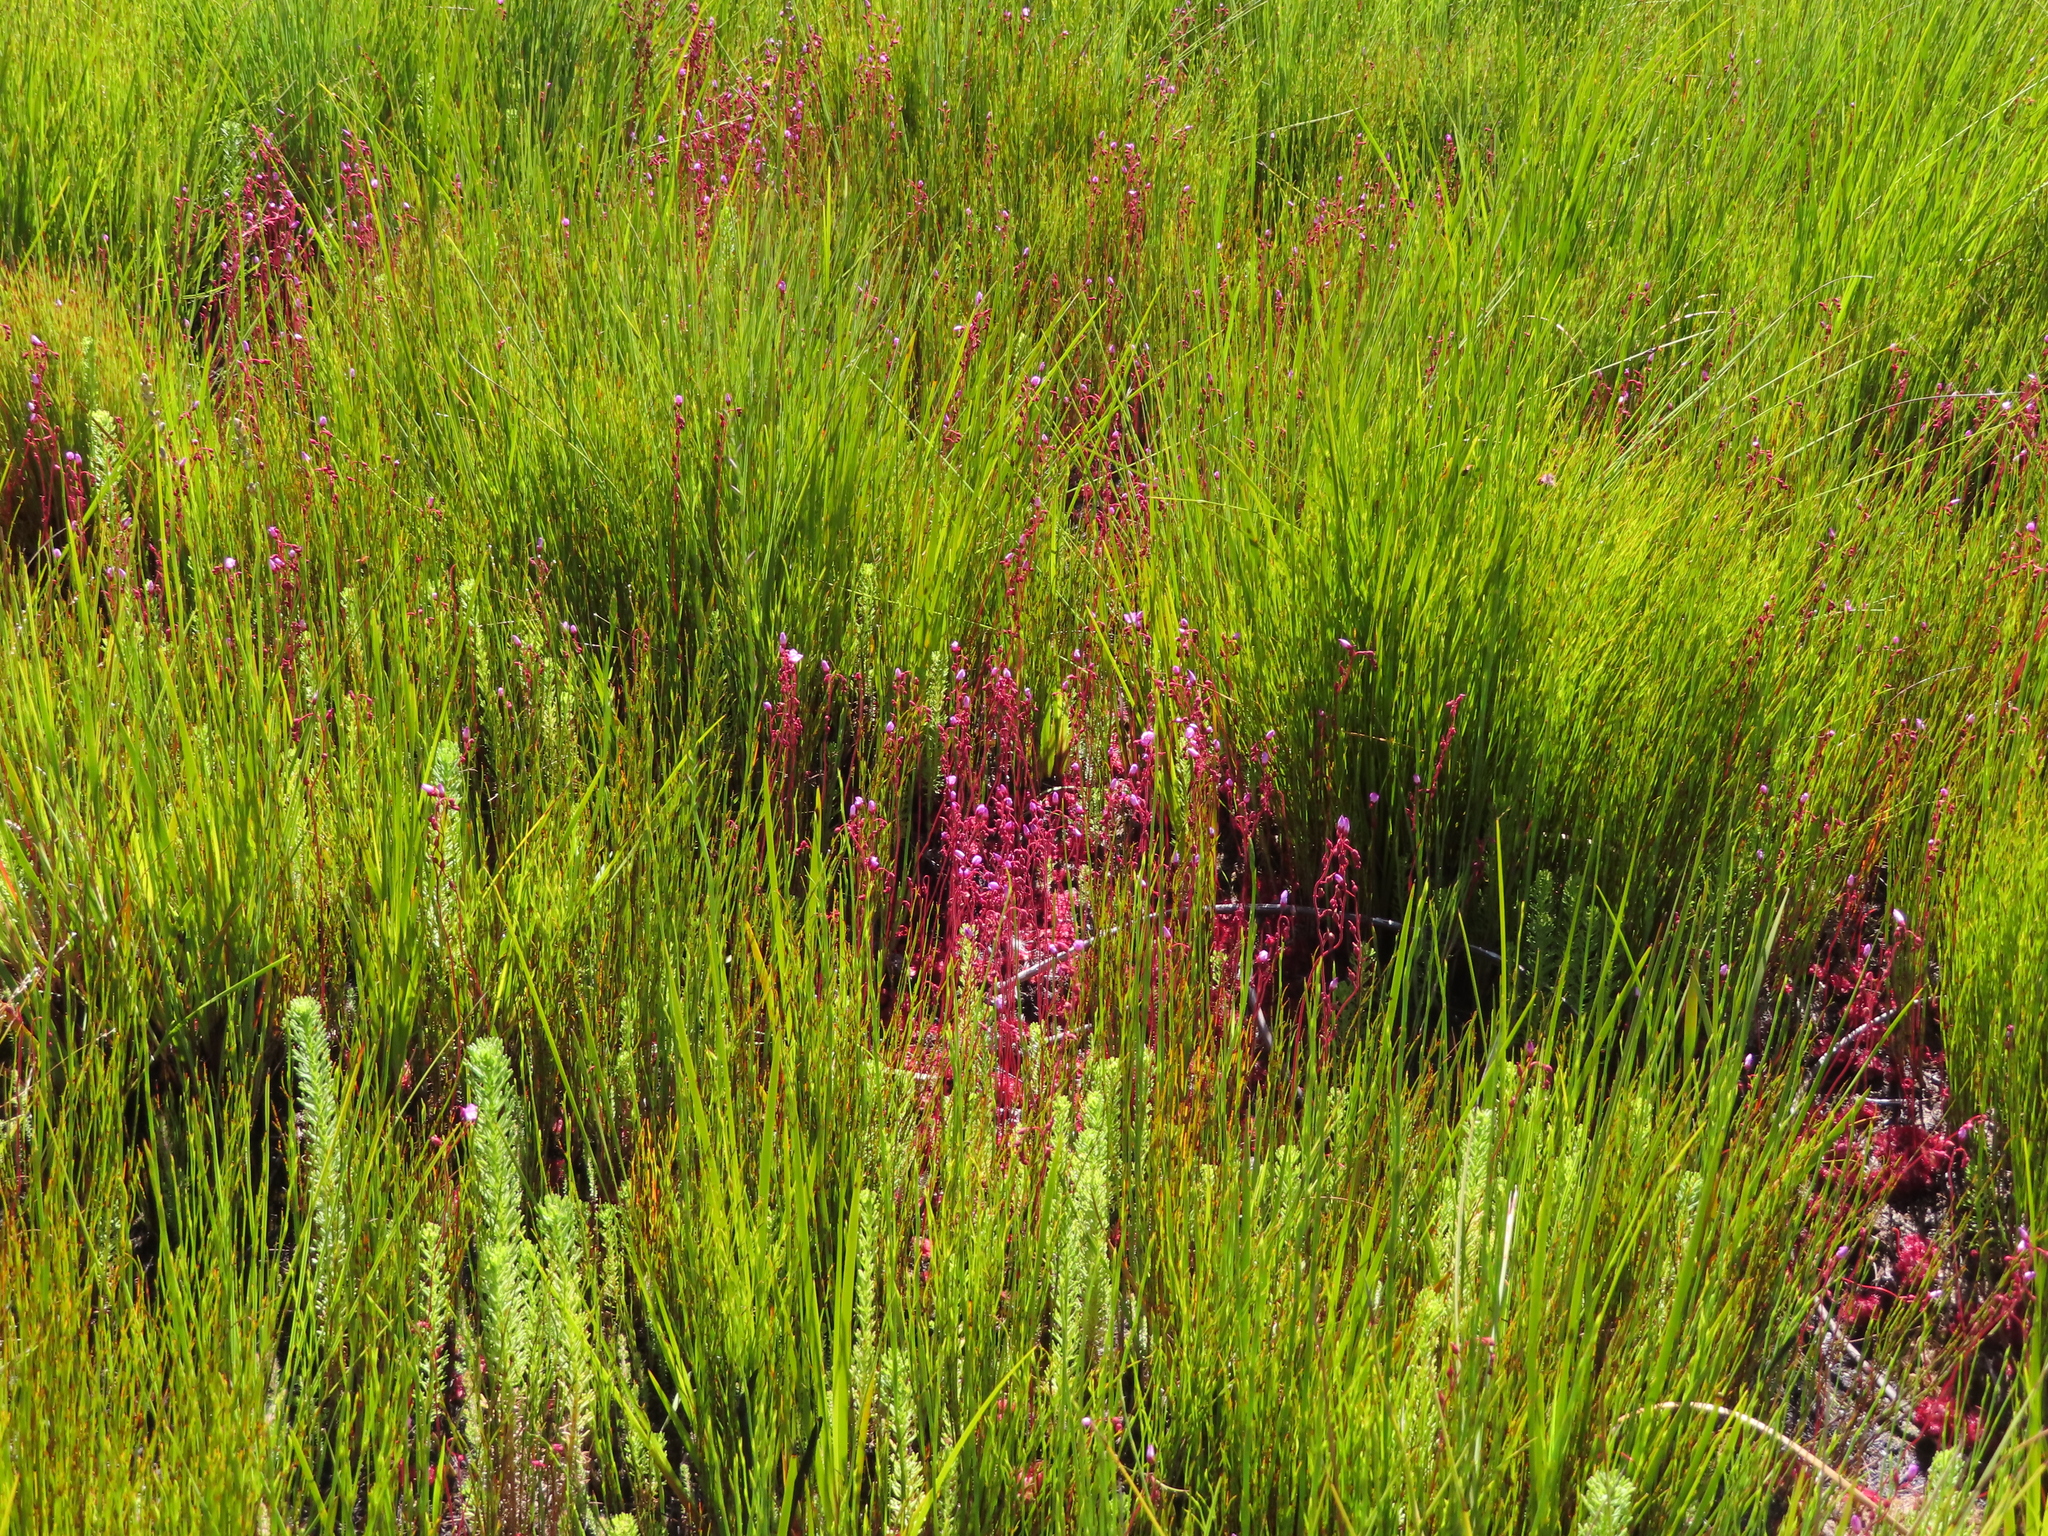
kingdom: Plantae
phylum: Tracheophyta
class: Magnoliopsida
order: Caryophyllales
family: Droseraceae
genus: Drosera
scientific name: Drosera cuneifolia
